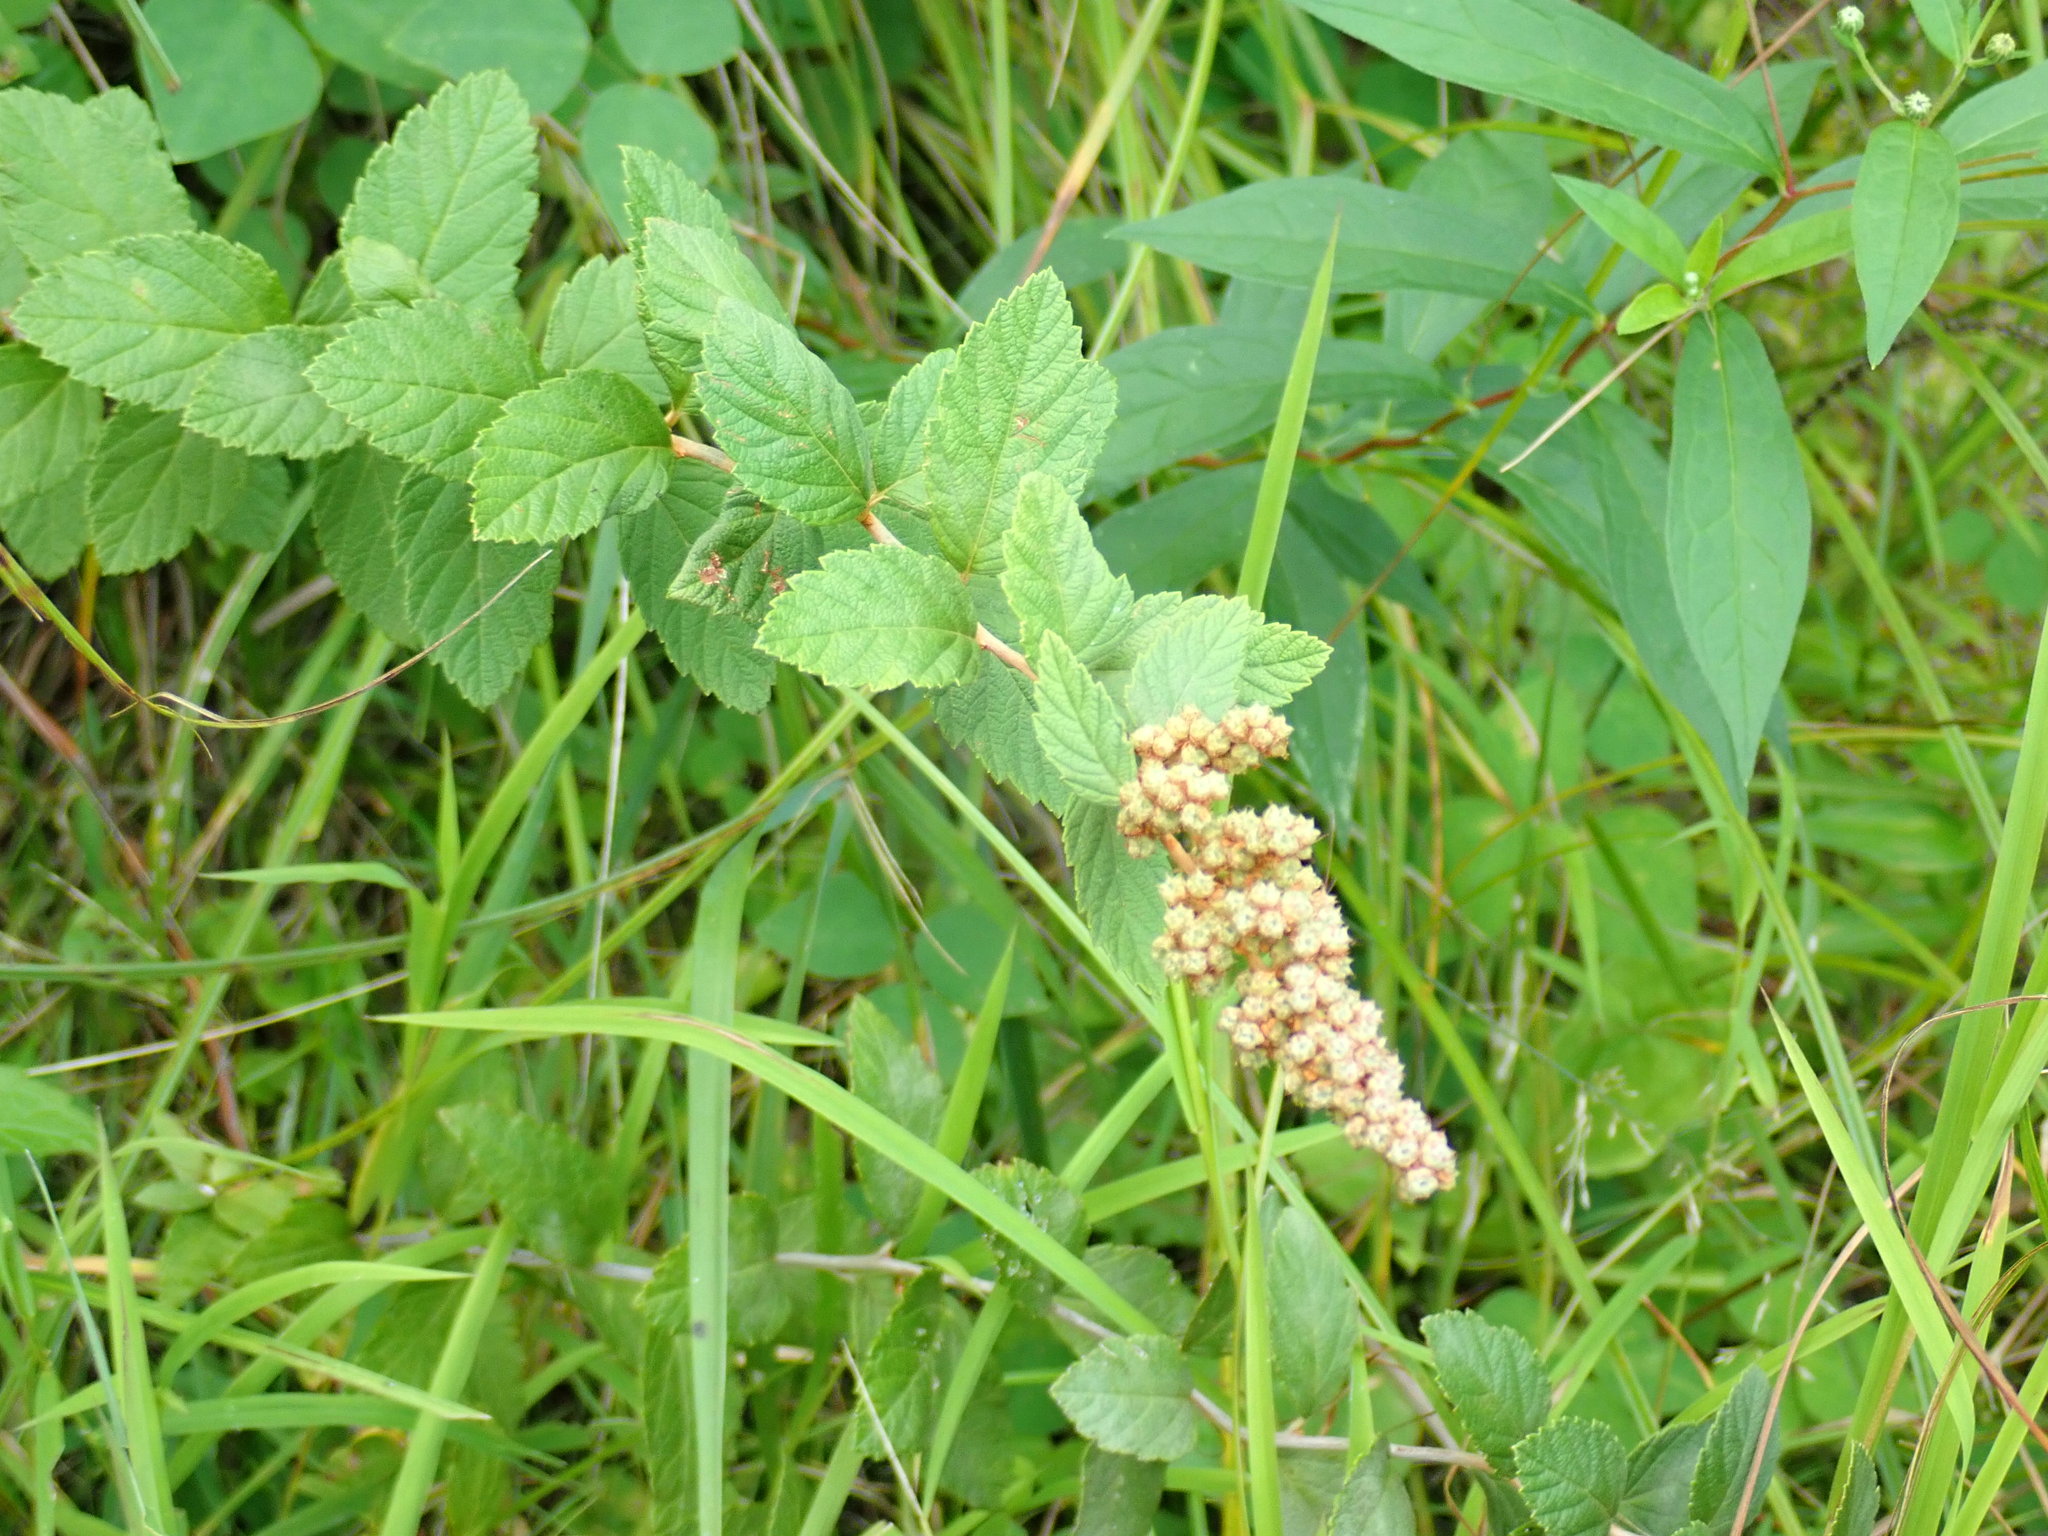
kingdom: Plantae
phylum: Tracheophyta
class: Magnoliopsida
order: Rosales
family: Rosaceae
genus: Spiraea
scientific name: Spiraea tomentosa
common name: Hardhack
